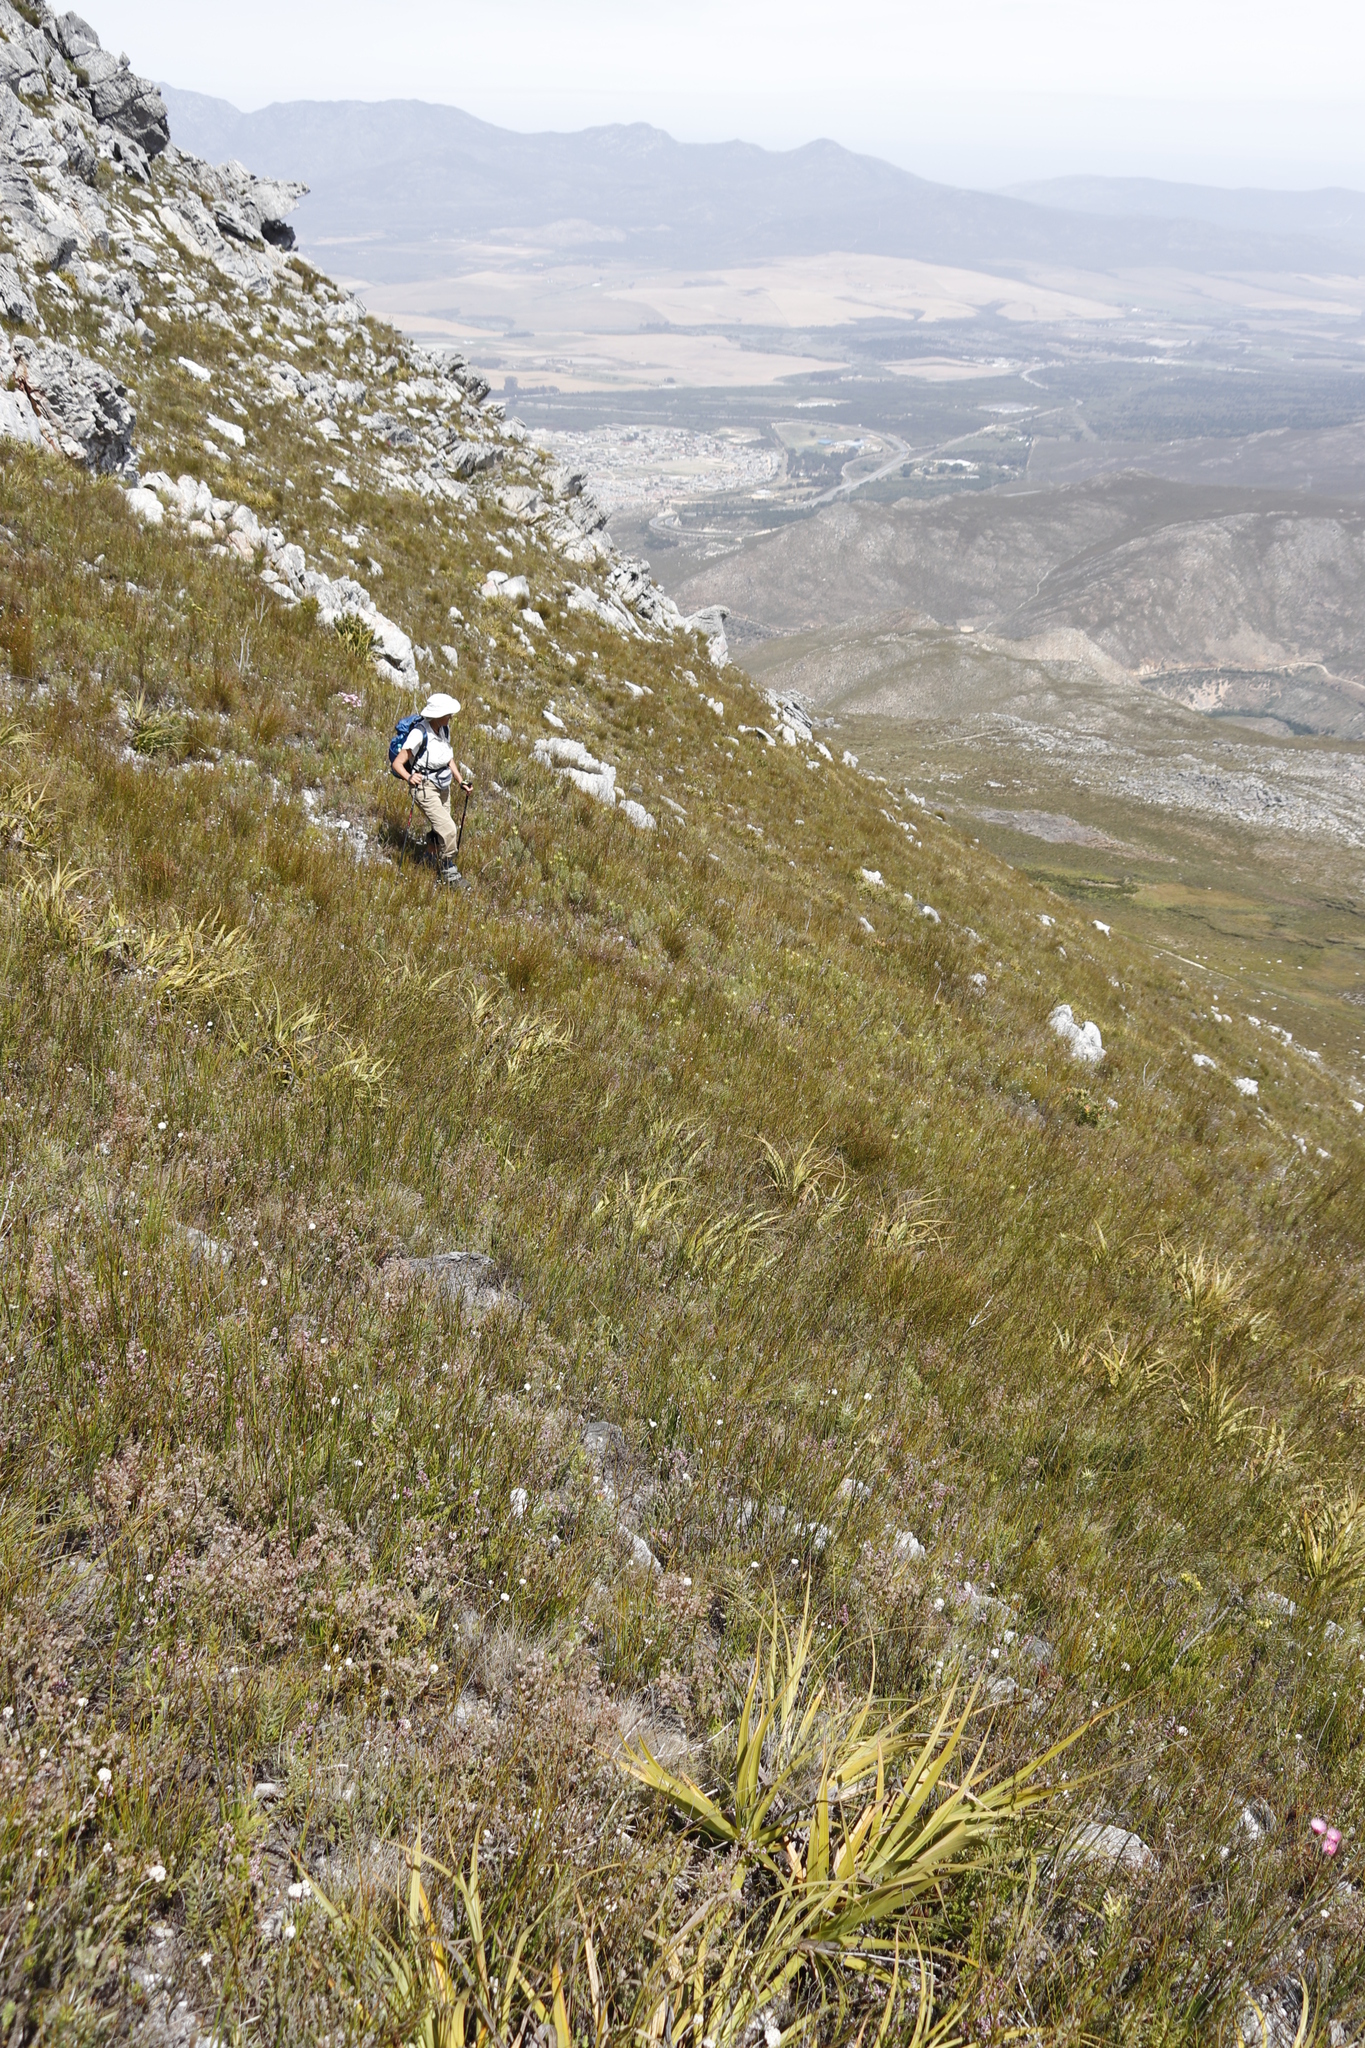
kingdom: Plantae
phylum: Tracheophyta
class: Liliopsida
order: Poales
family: Cyperaceae
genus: Tetraria
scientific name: Tetraria thermalis
